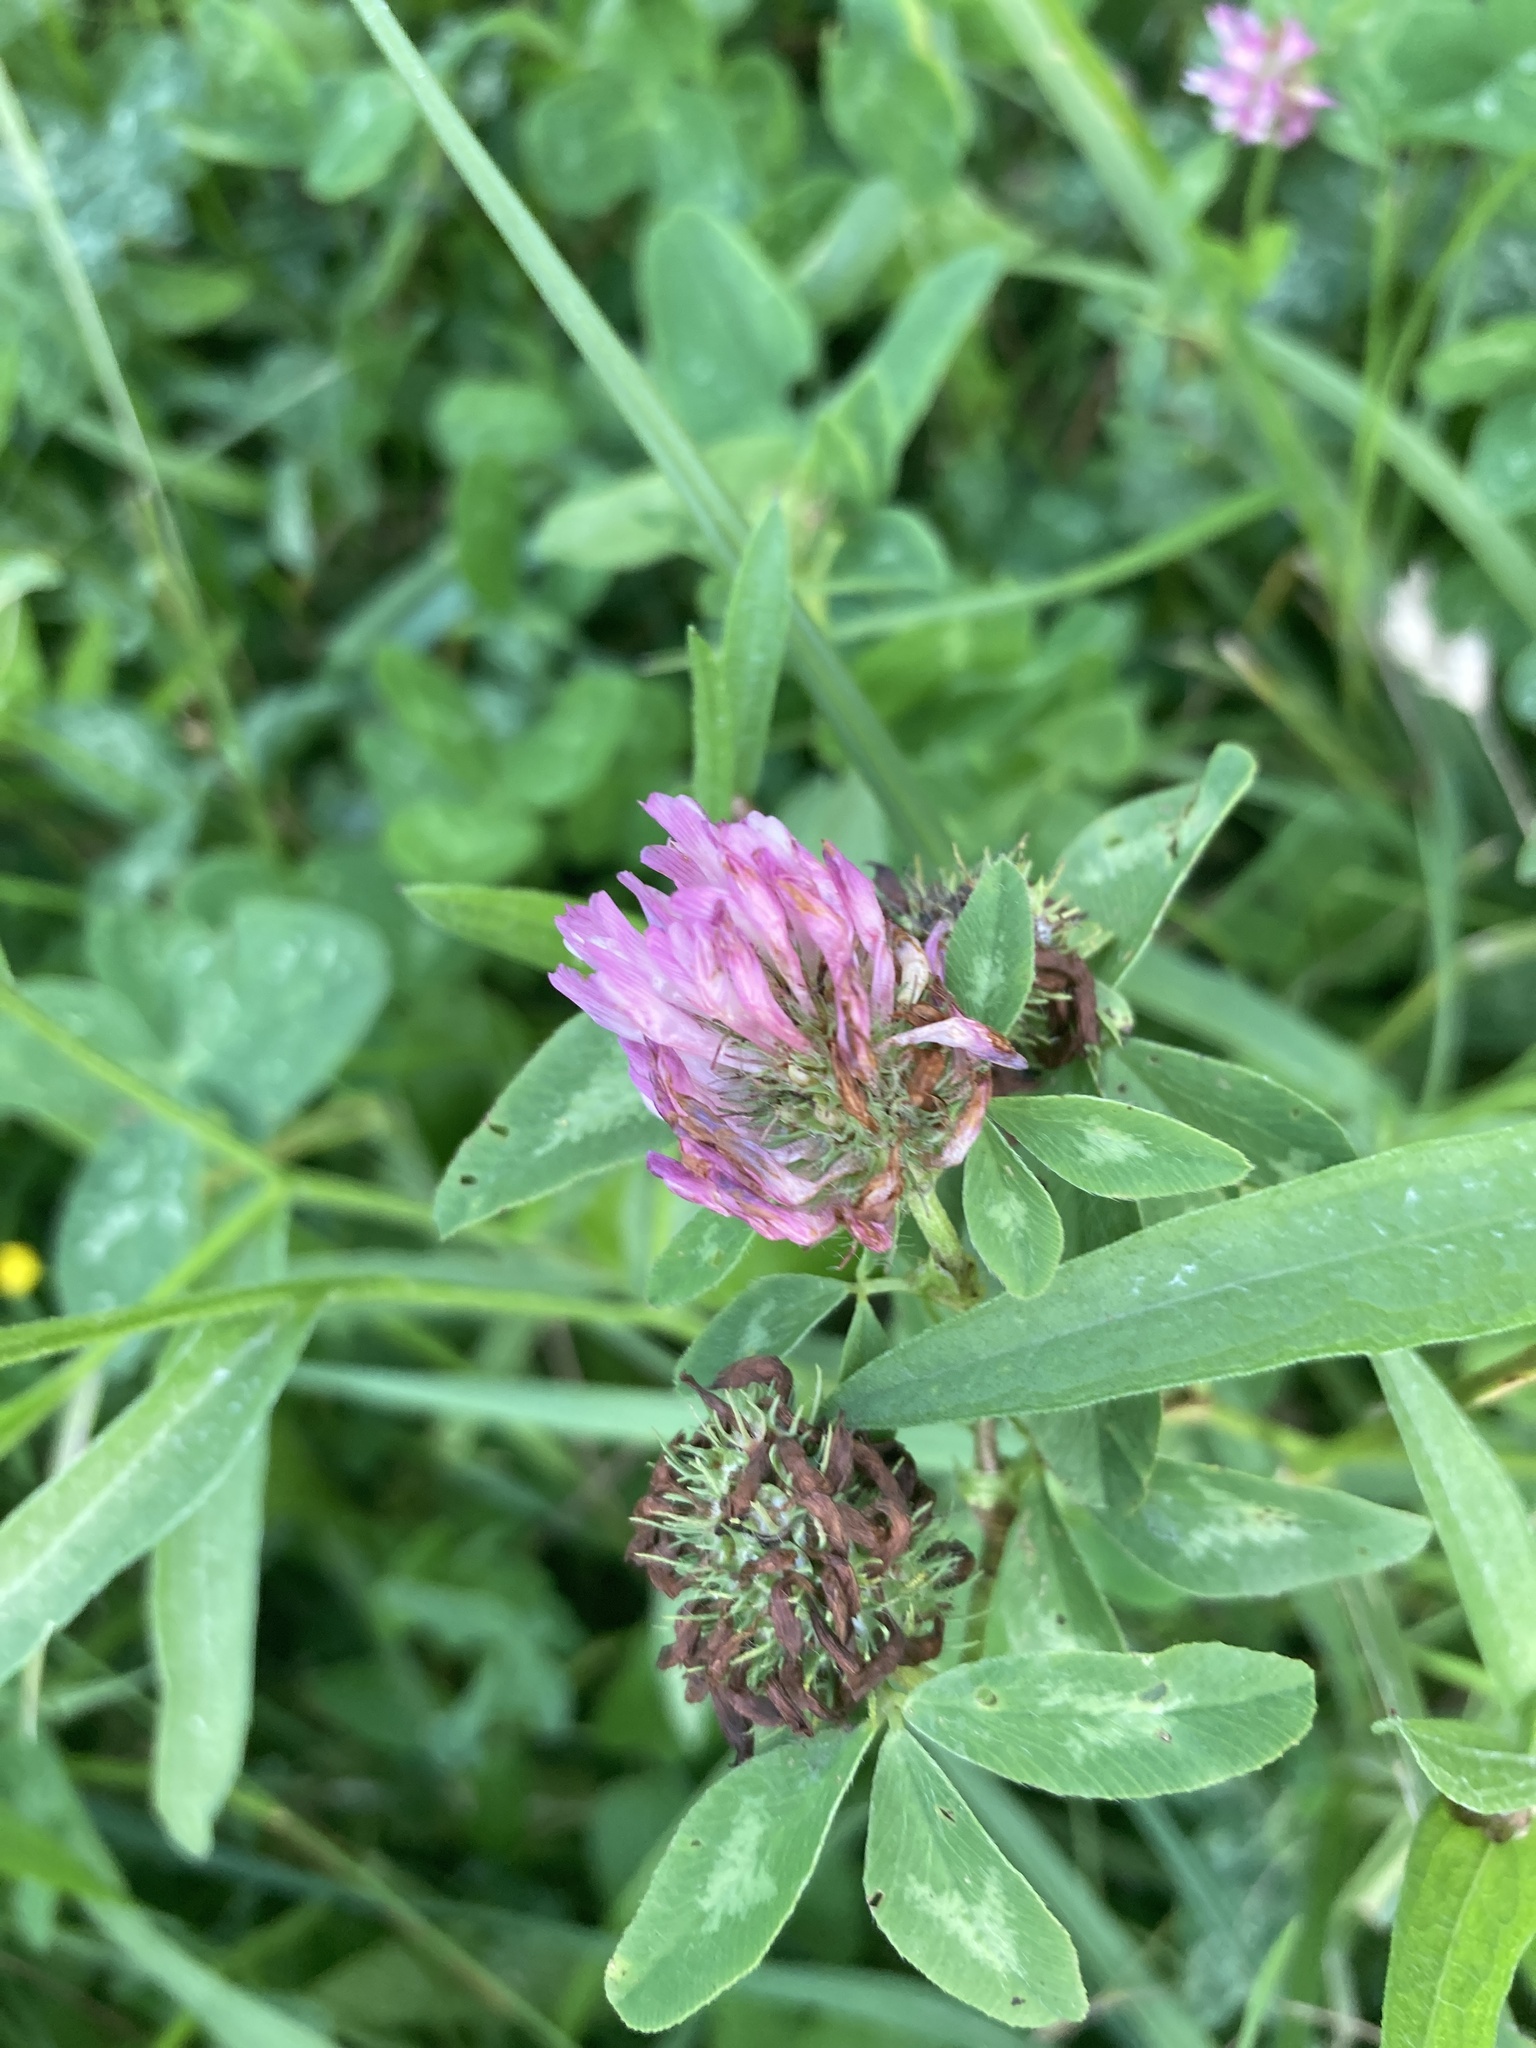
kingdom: Plantae
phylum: Tracheophyta
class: Magnoliopsida
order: Fabales
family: Fabaceae
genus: Trifolium
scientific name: Trifolium pratense
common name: Red clover
